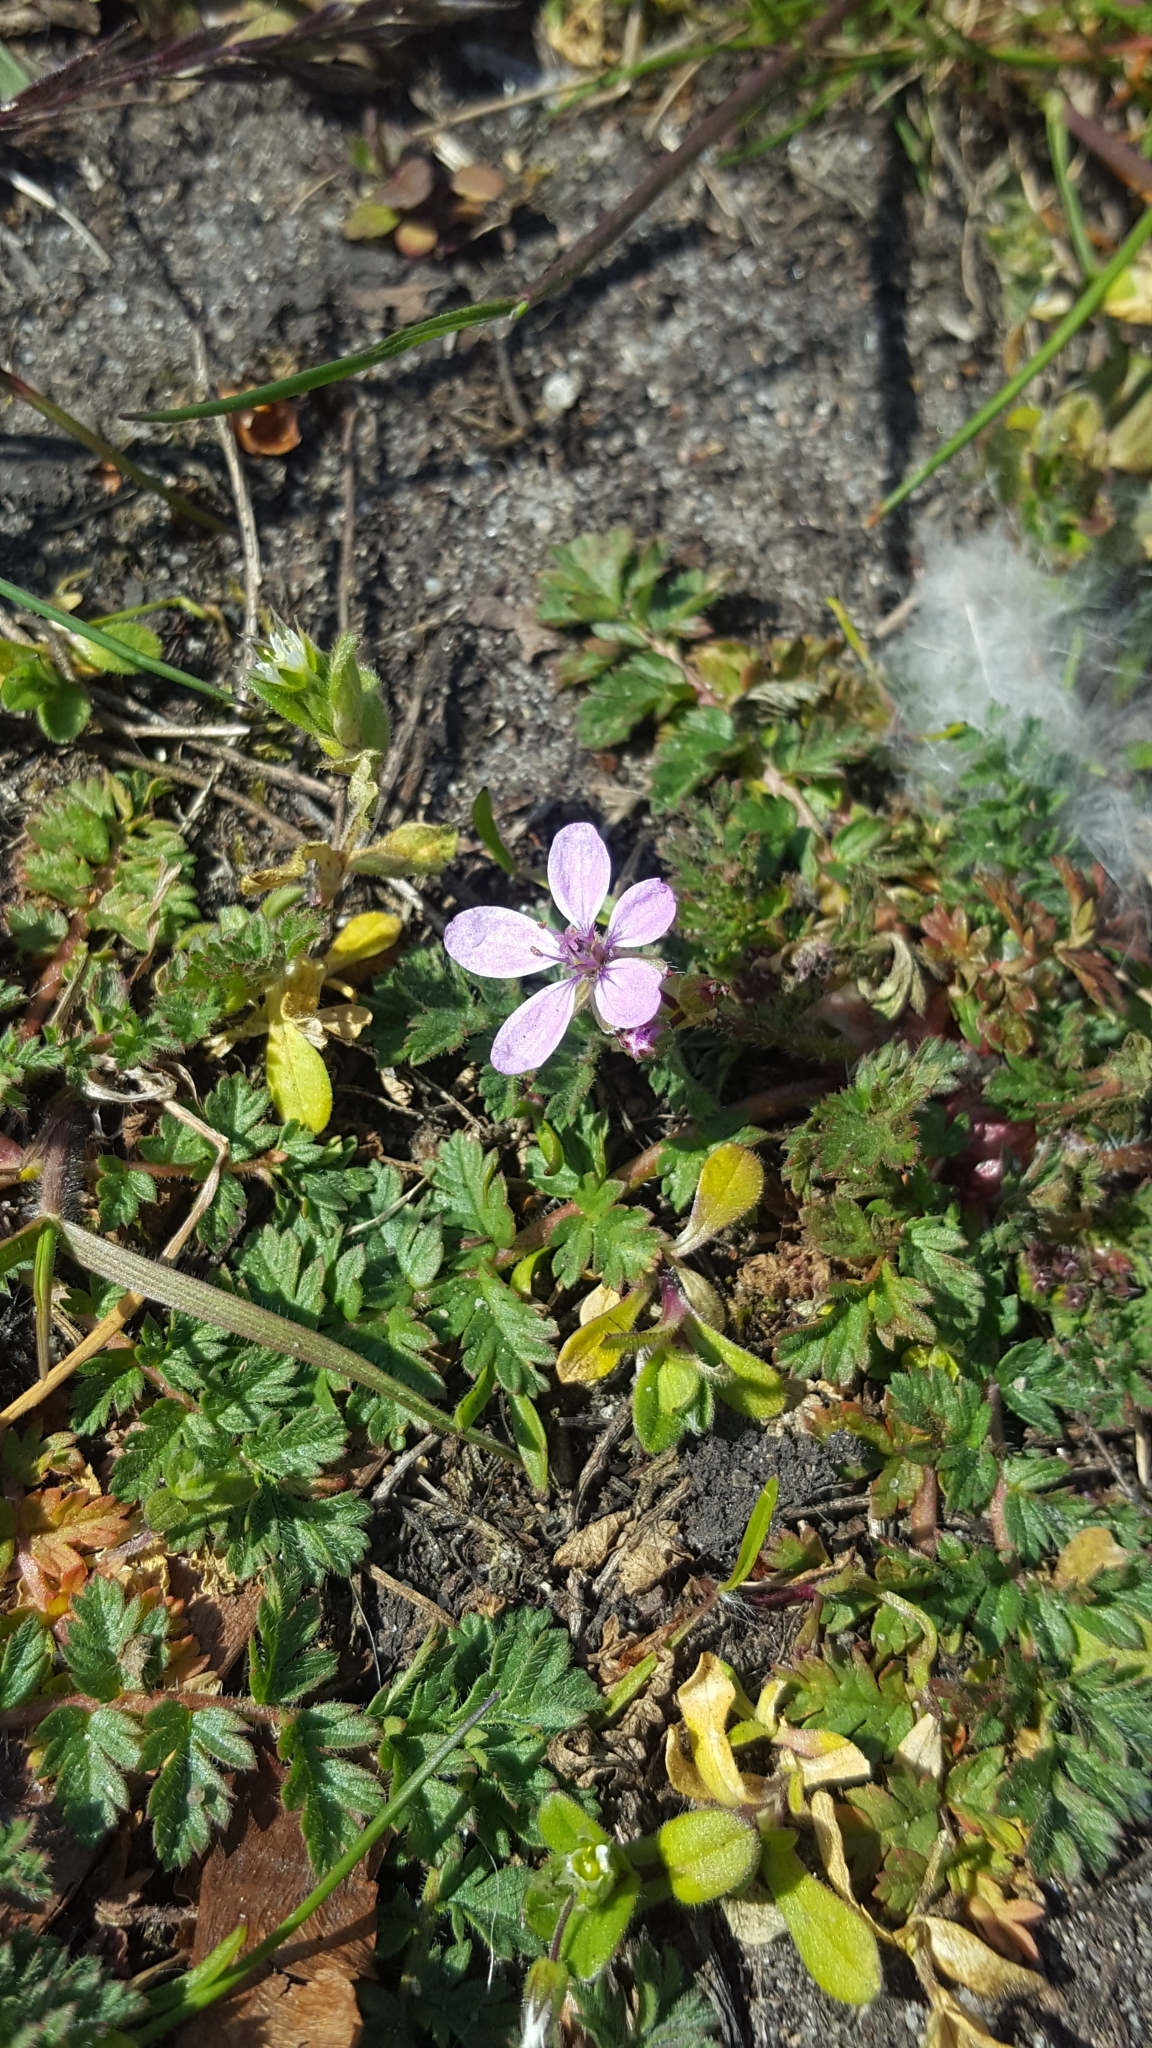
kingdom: Plantae
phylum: Tracheophyta
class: Magnoliopsida
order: Geraniales
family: Geraniaceae
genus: Erodium
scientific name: Erodium cicutarium
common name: Common stork's-bill
